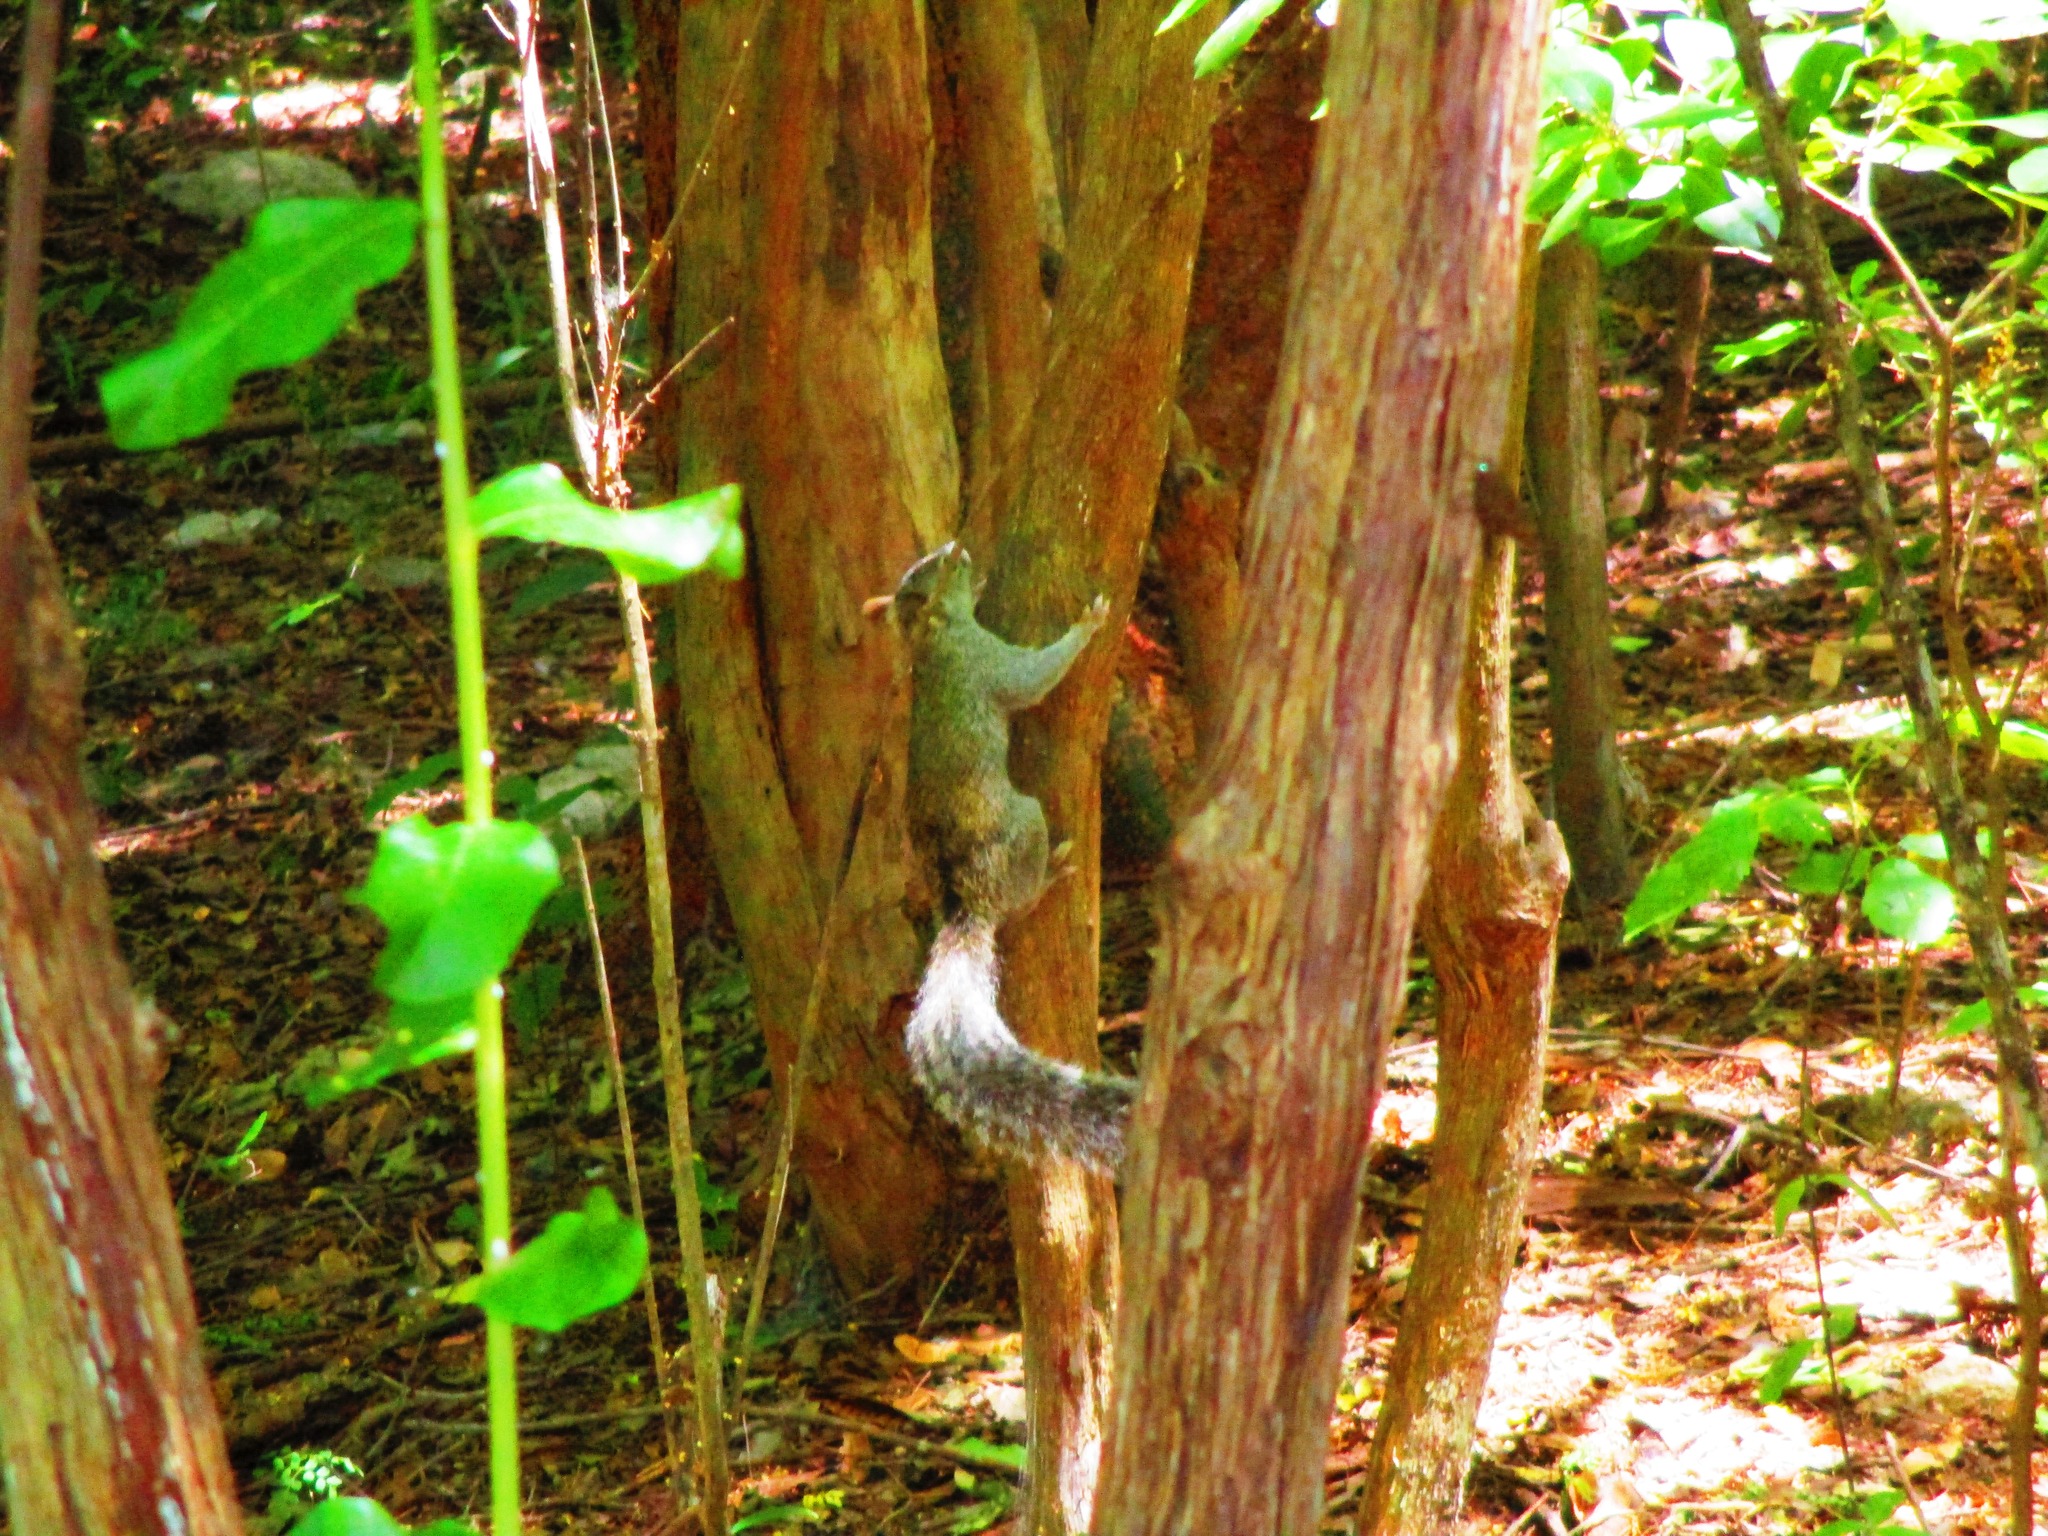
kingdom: Animalia
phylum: Chordata
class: Mammalia
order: Rodentia
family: Sciuridae
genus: Sciurus
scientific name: Sciurus yucatanensis
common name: Yucatan squirrel
